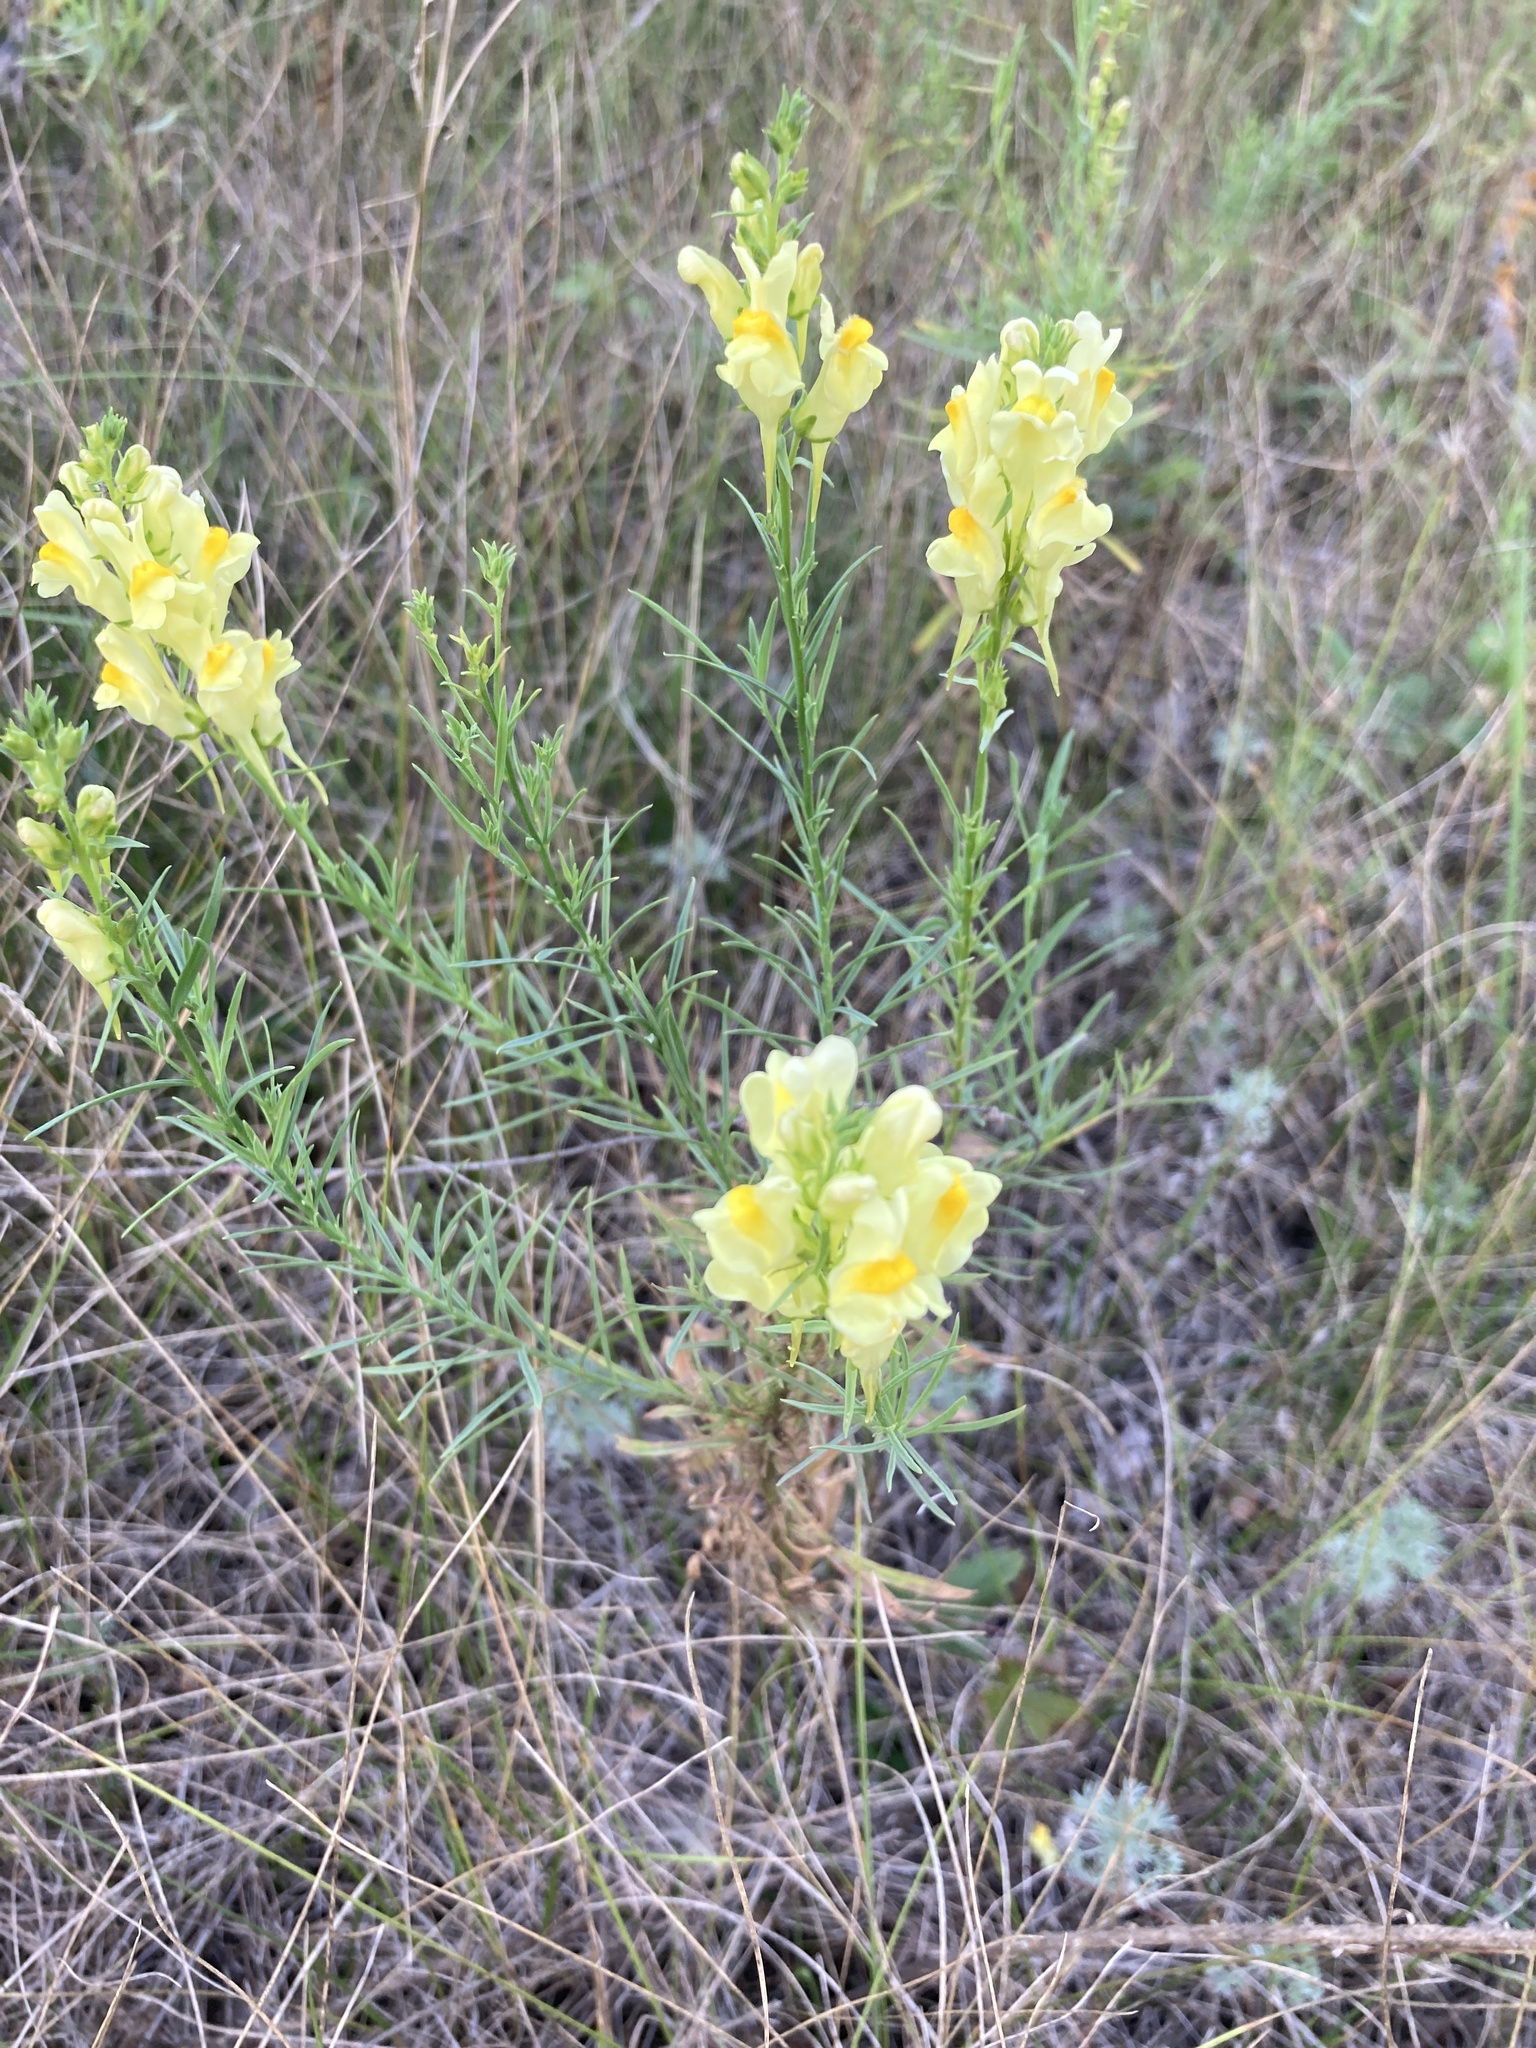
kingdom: Plantae
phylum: Tracheophyta
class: Magnoliopsida
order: Lamiales
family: Plantaginaceae
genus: Linaria
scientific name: Linaria vulgaris
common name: Butter and eggs
